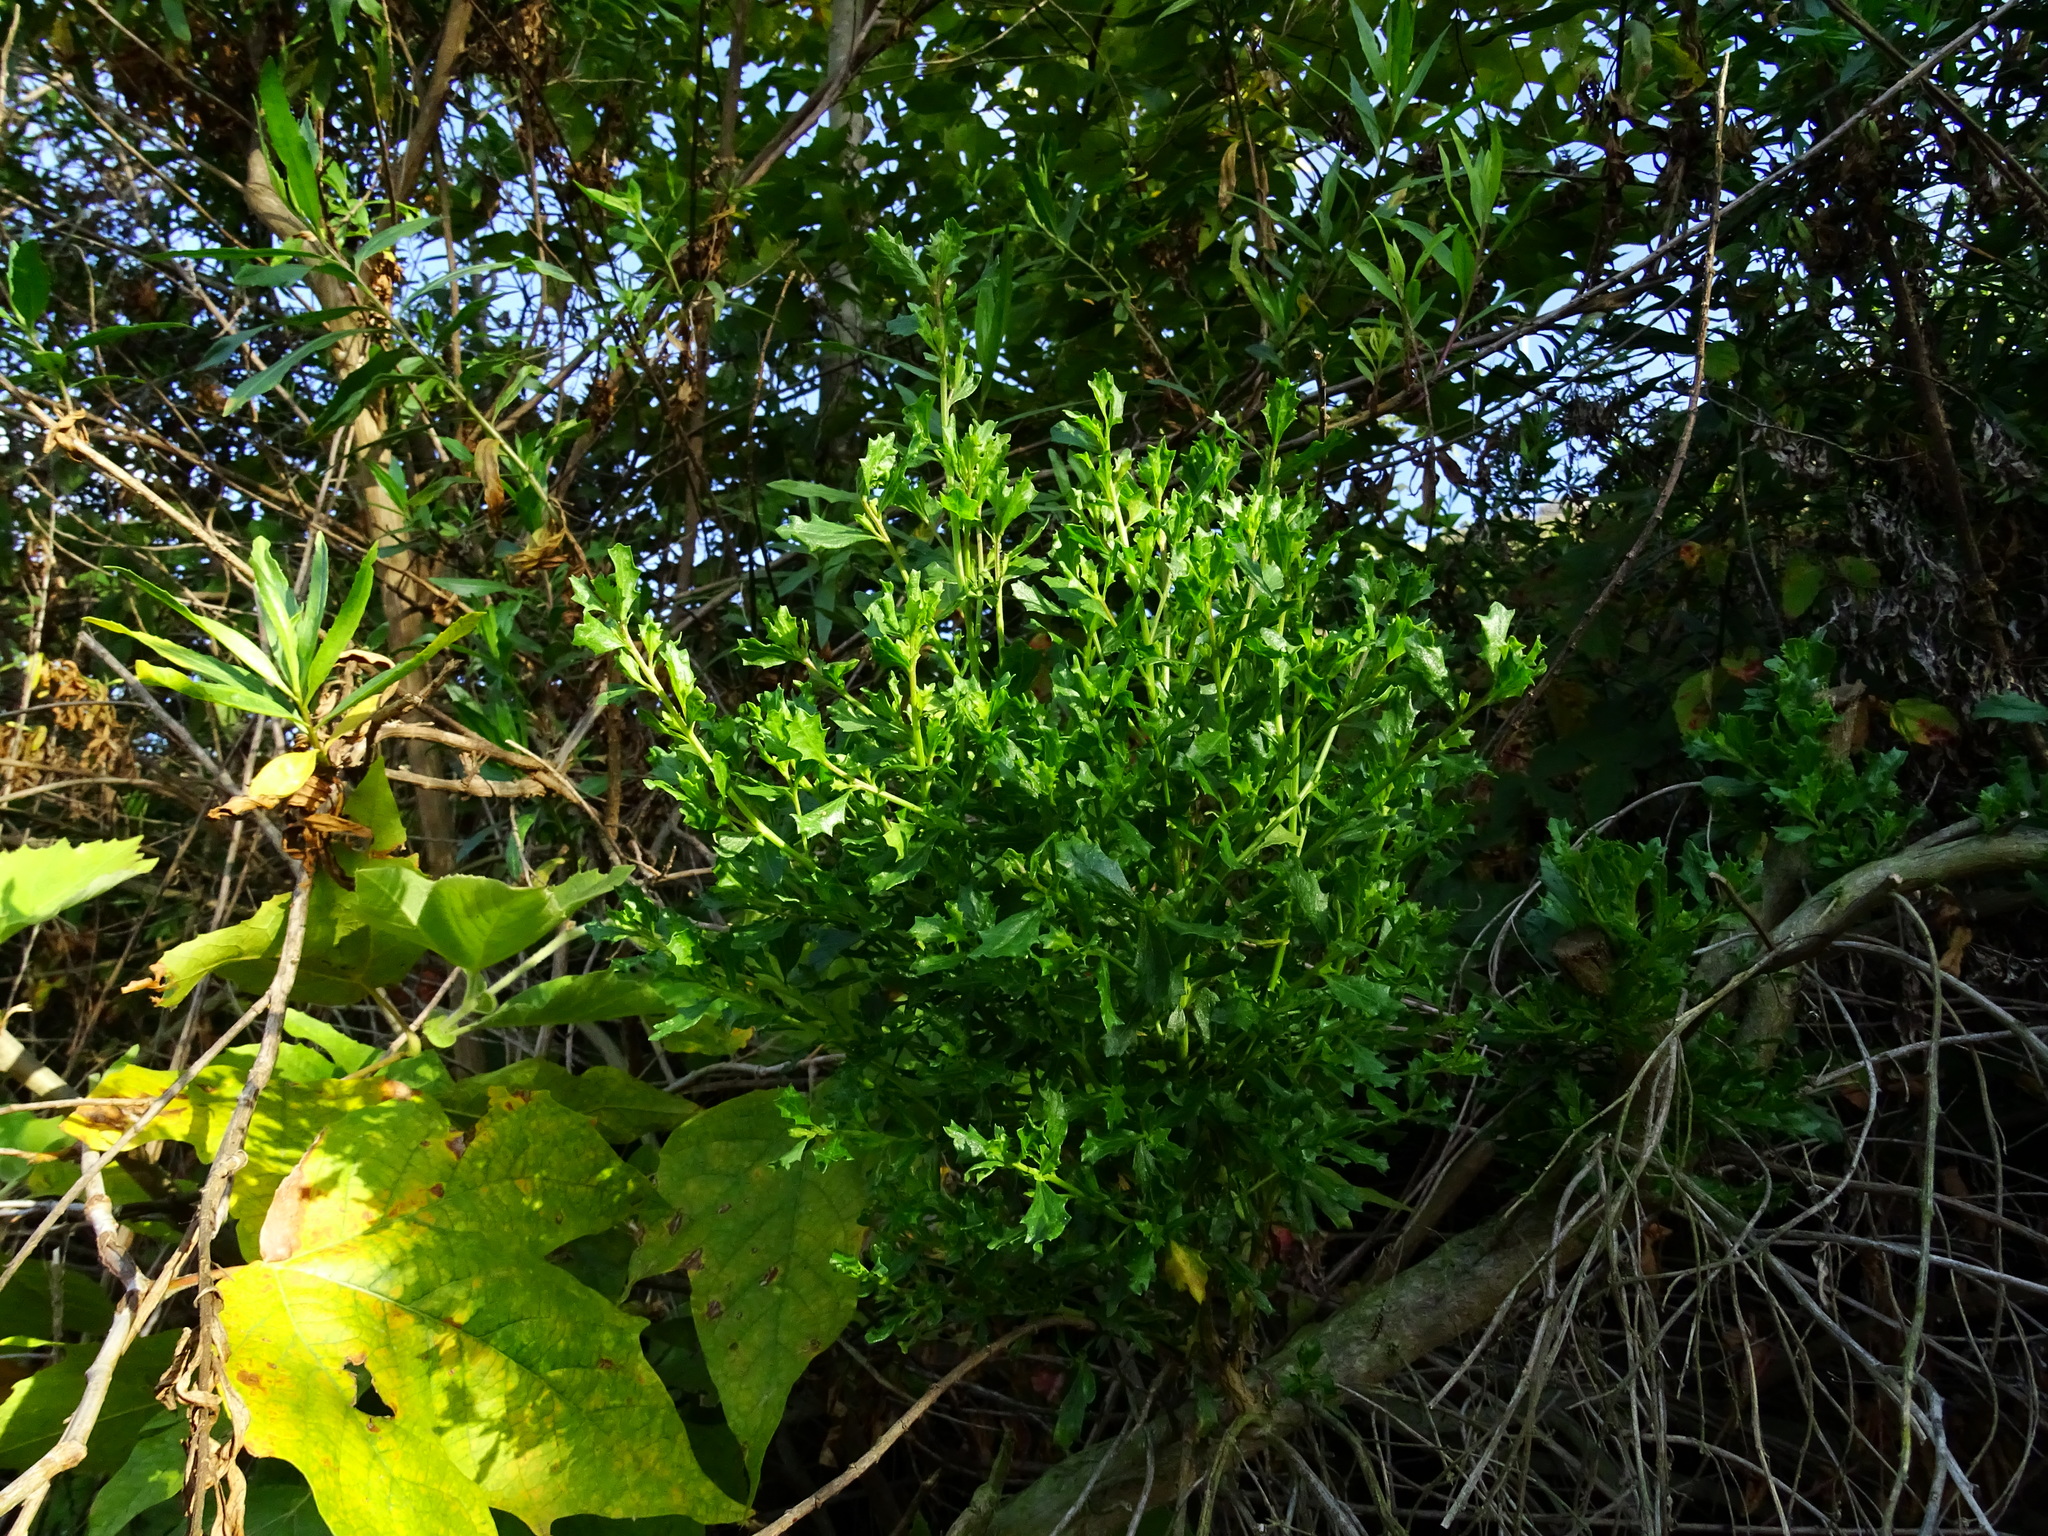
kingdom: Plantae
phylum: Tracheophyta
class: Magnoliopsida
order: Asterales
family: Asteraceae
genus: Baccharis
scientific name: Baccharis pilularis
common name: Coyotebrush
